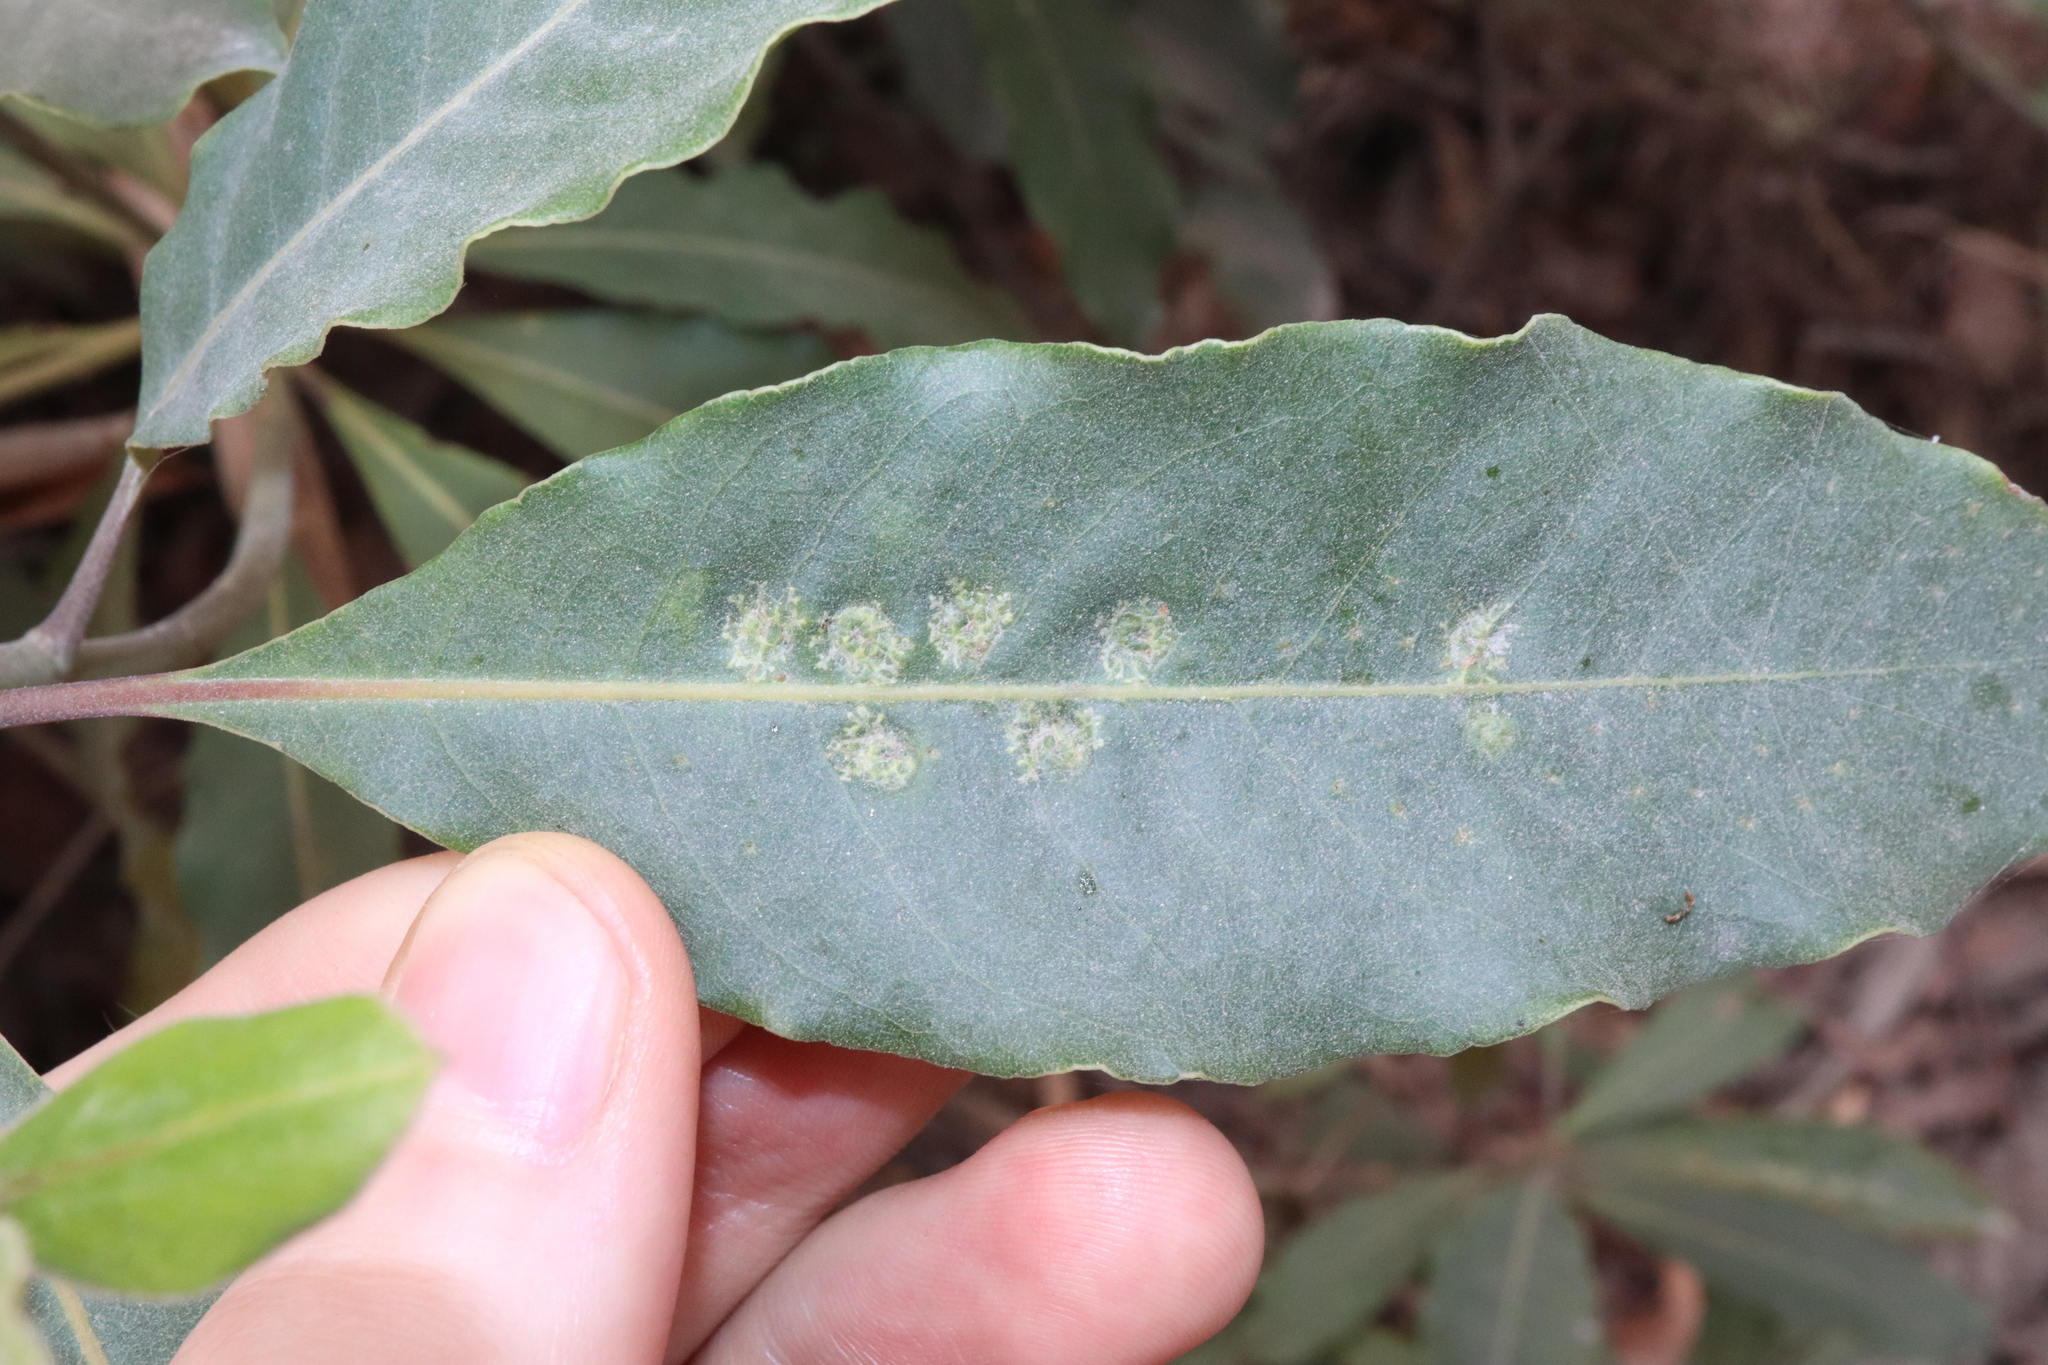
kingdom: Animalia
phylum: Arthropoda
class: Insecta
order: Diptera
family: Agromyzidae
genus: Phytoliriomyza
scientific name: Phytoliriomyza pittosporophylli
